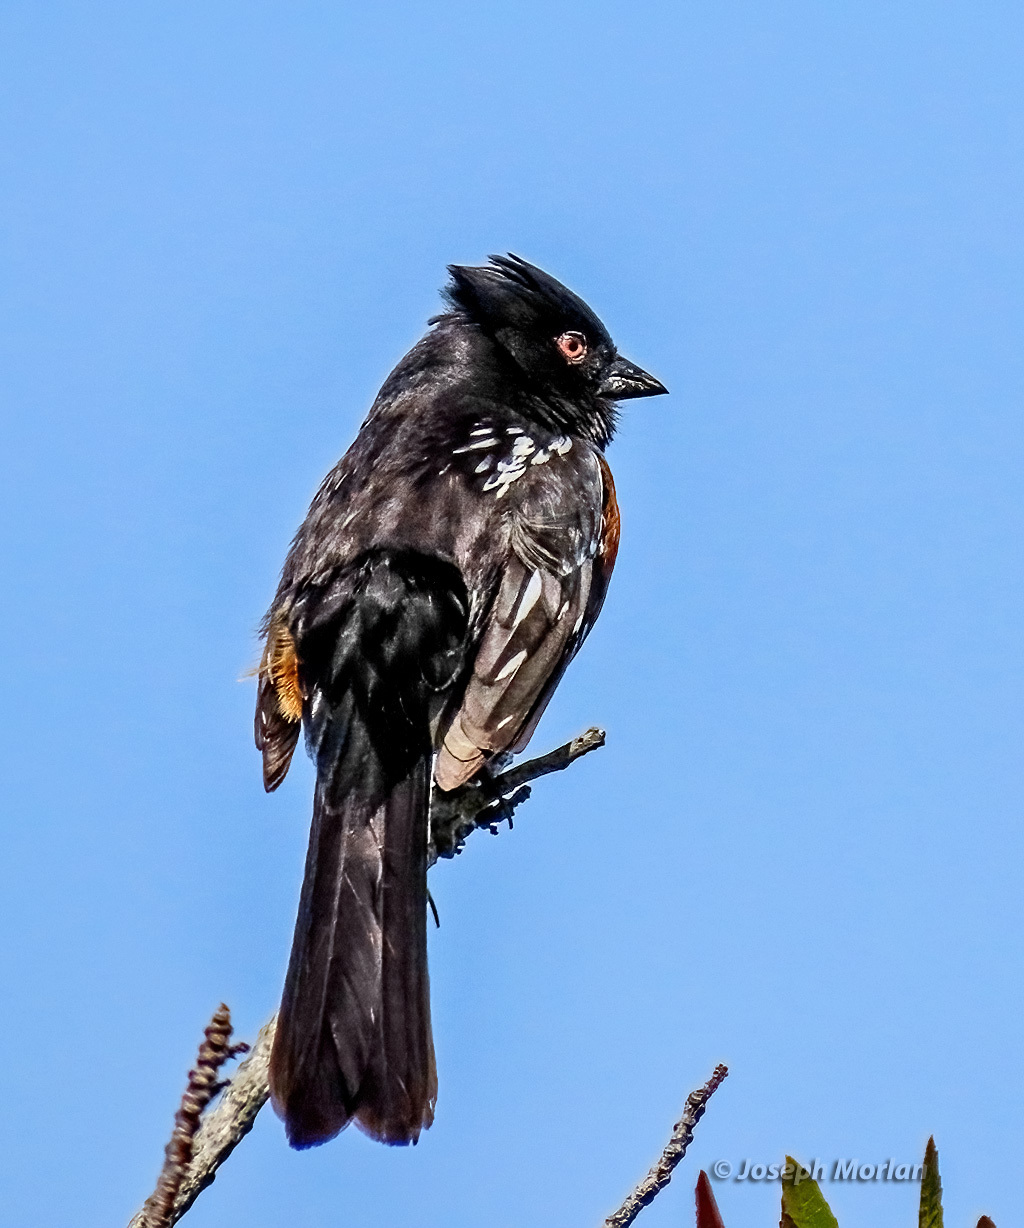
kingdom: Animalia
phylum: Chordata
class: Aves
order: Passeriformes
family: Passerellidae
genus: Pipilo
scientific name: Pipilo maculatus
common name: Spotted towhee
